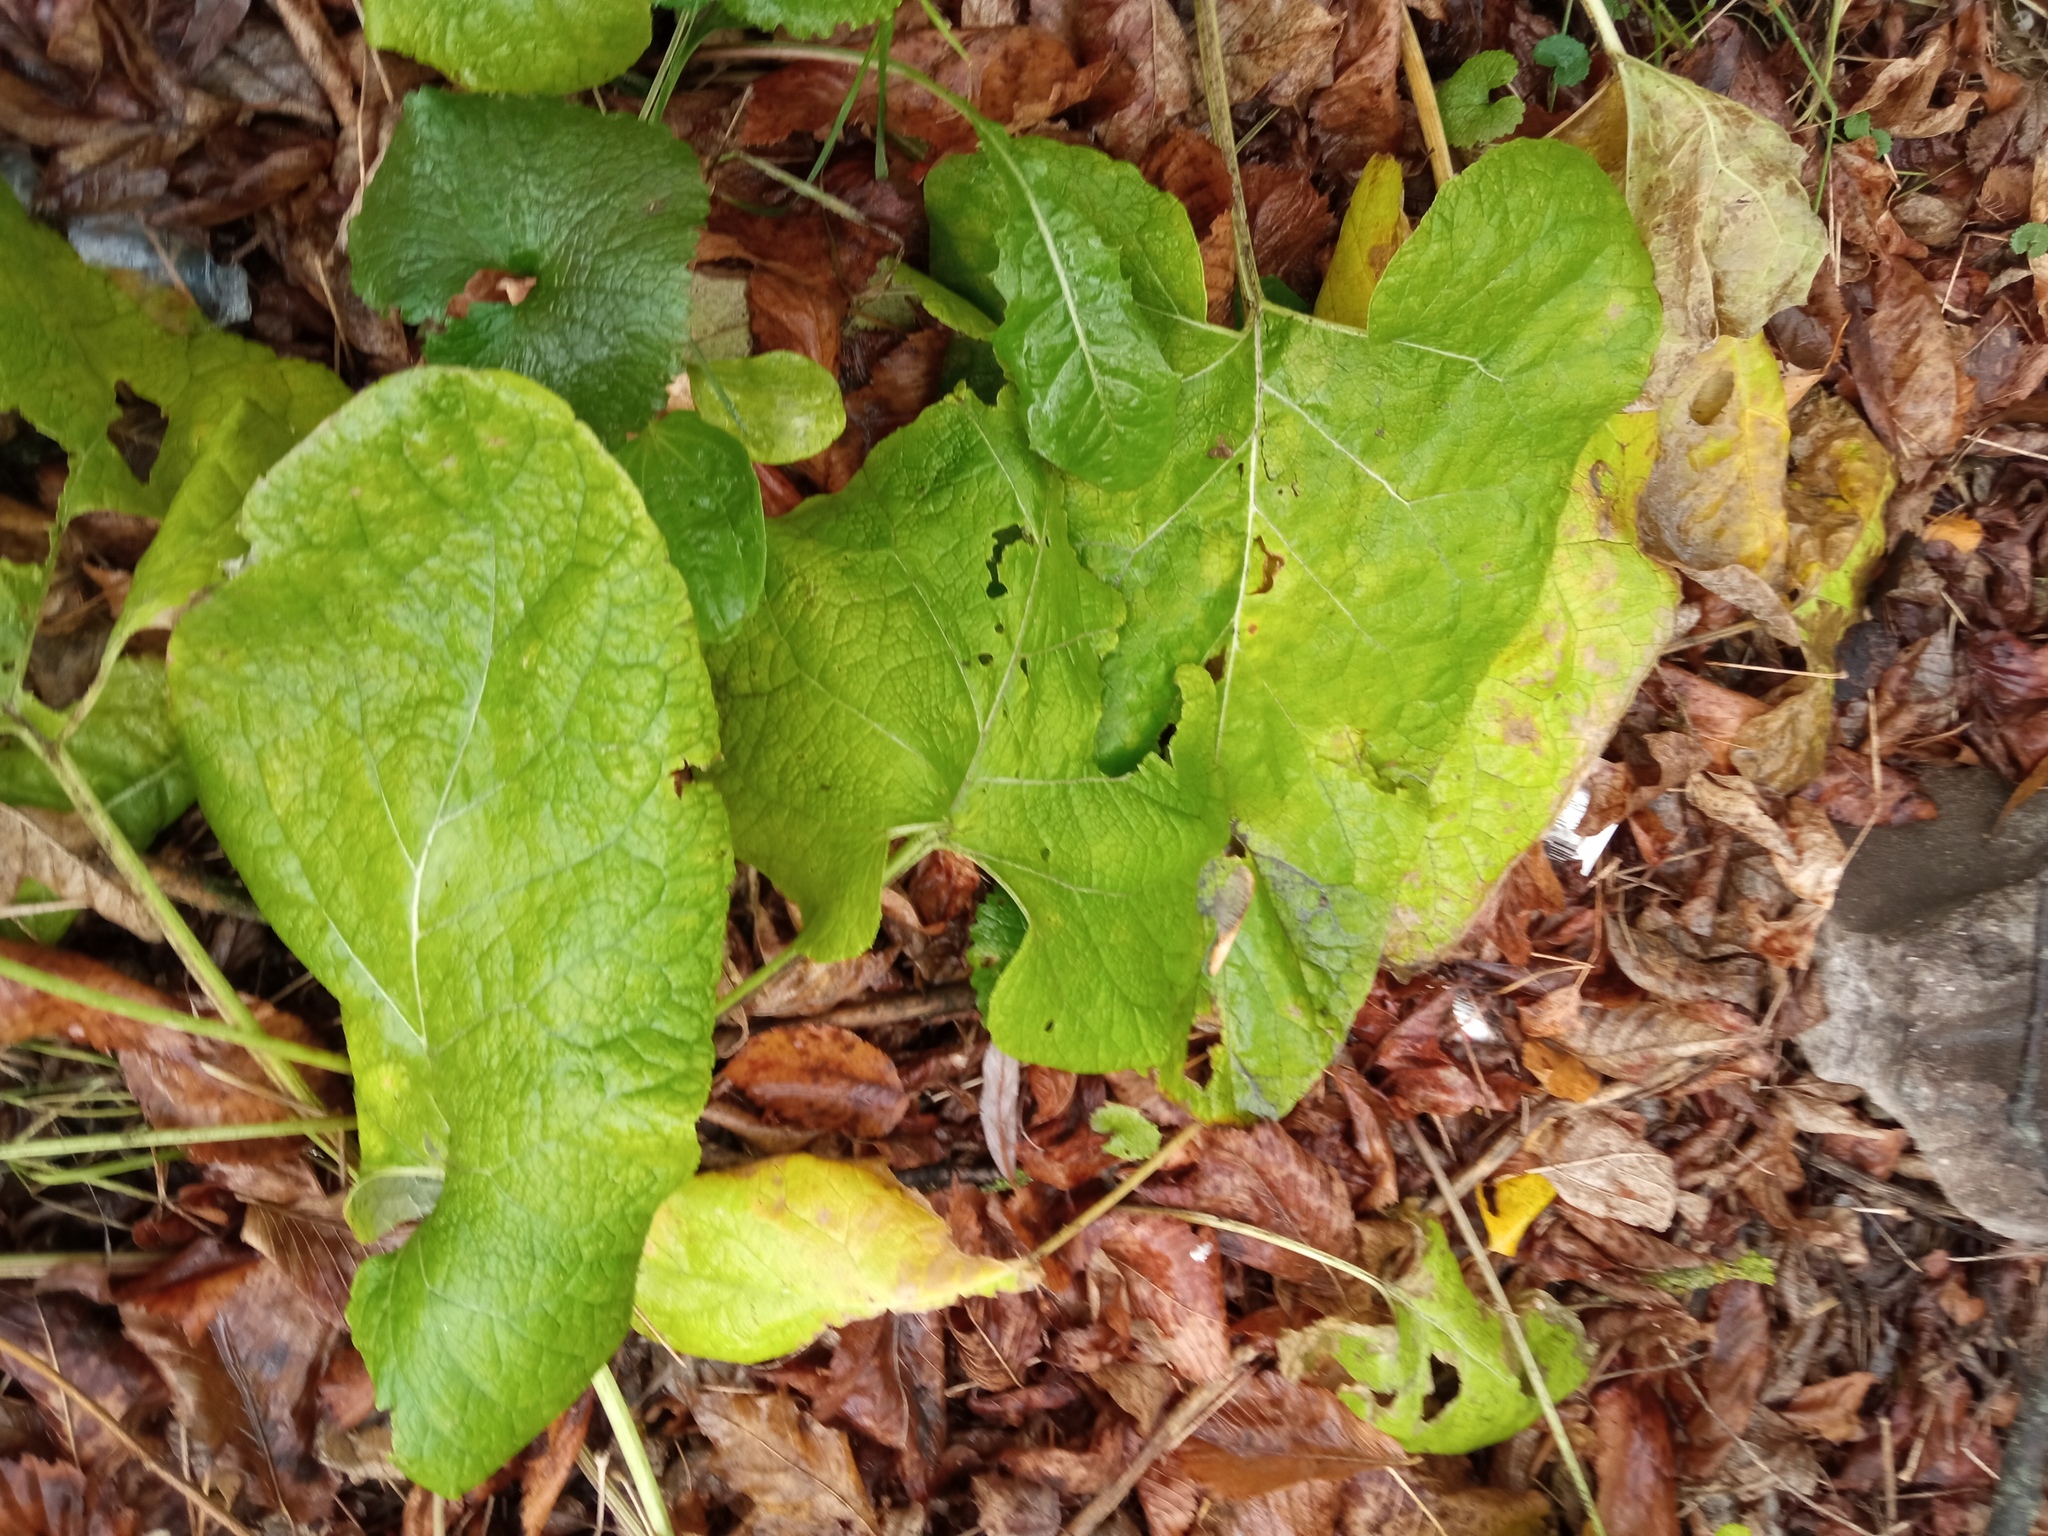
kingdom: Plantae
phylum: Tracheophyta
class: Magnoliopsida
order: Asterales
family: Asteraceae
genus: Arctium
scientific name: Arctium
